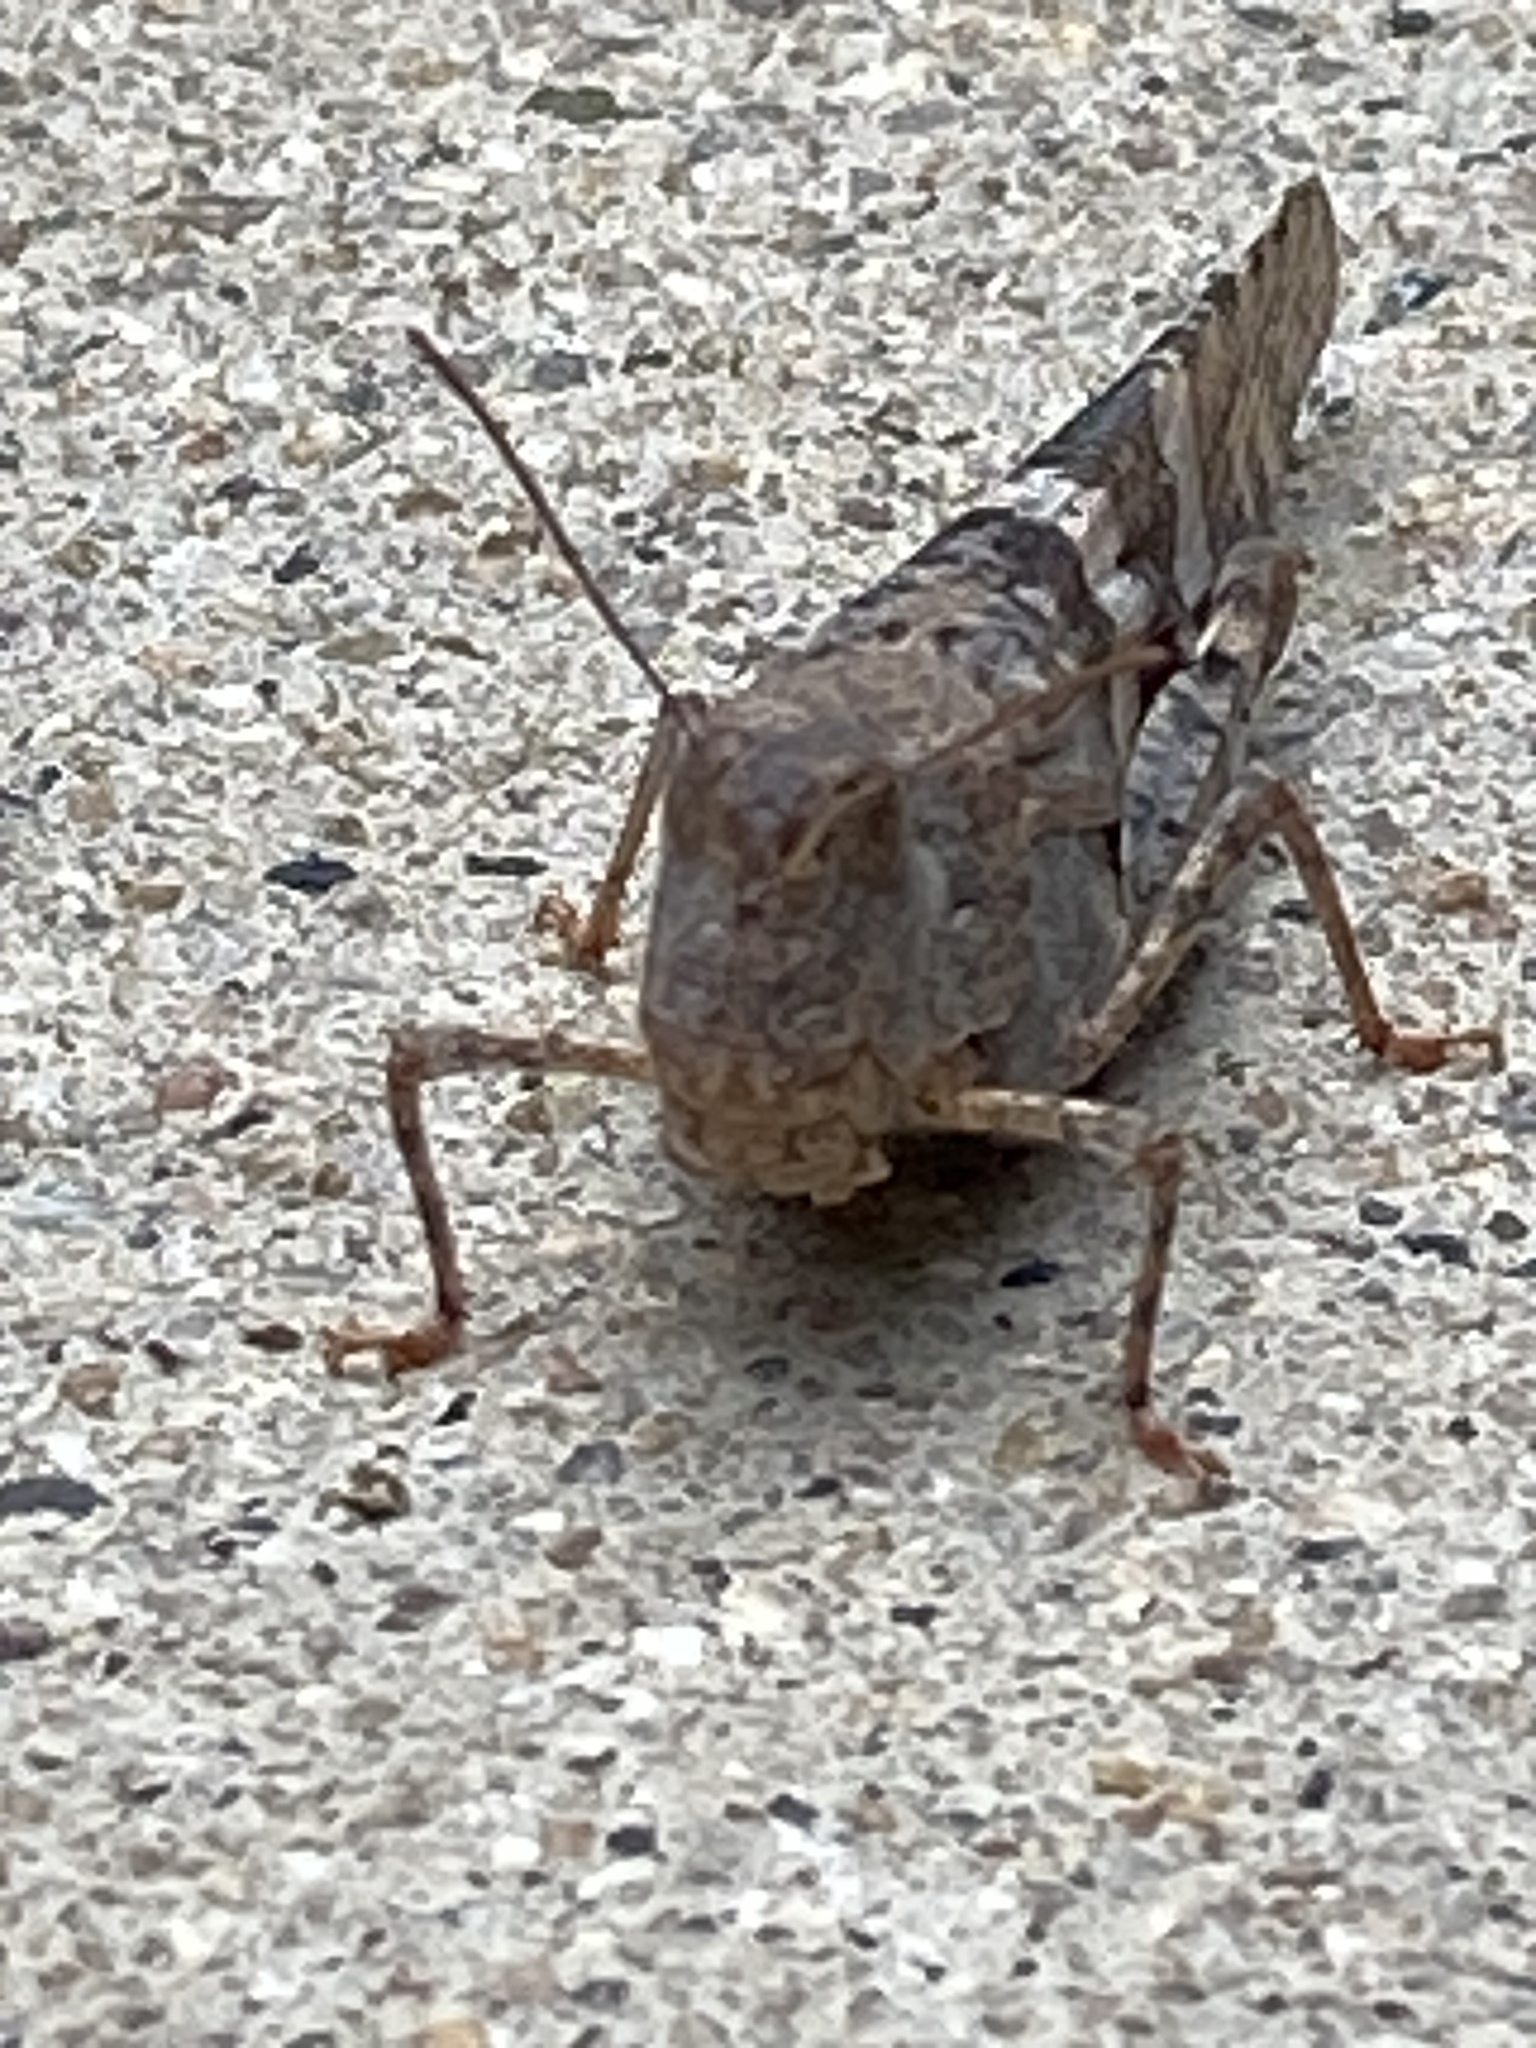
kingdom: Animalia
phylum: Arthropoda
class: Insecta
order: Orthoptera
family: Acrididae
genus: Trimerotropis
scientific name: Trimerotropis pallidipennis
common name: Pallid-winged grasshopper
